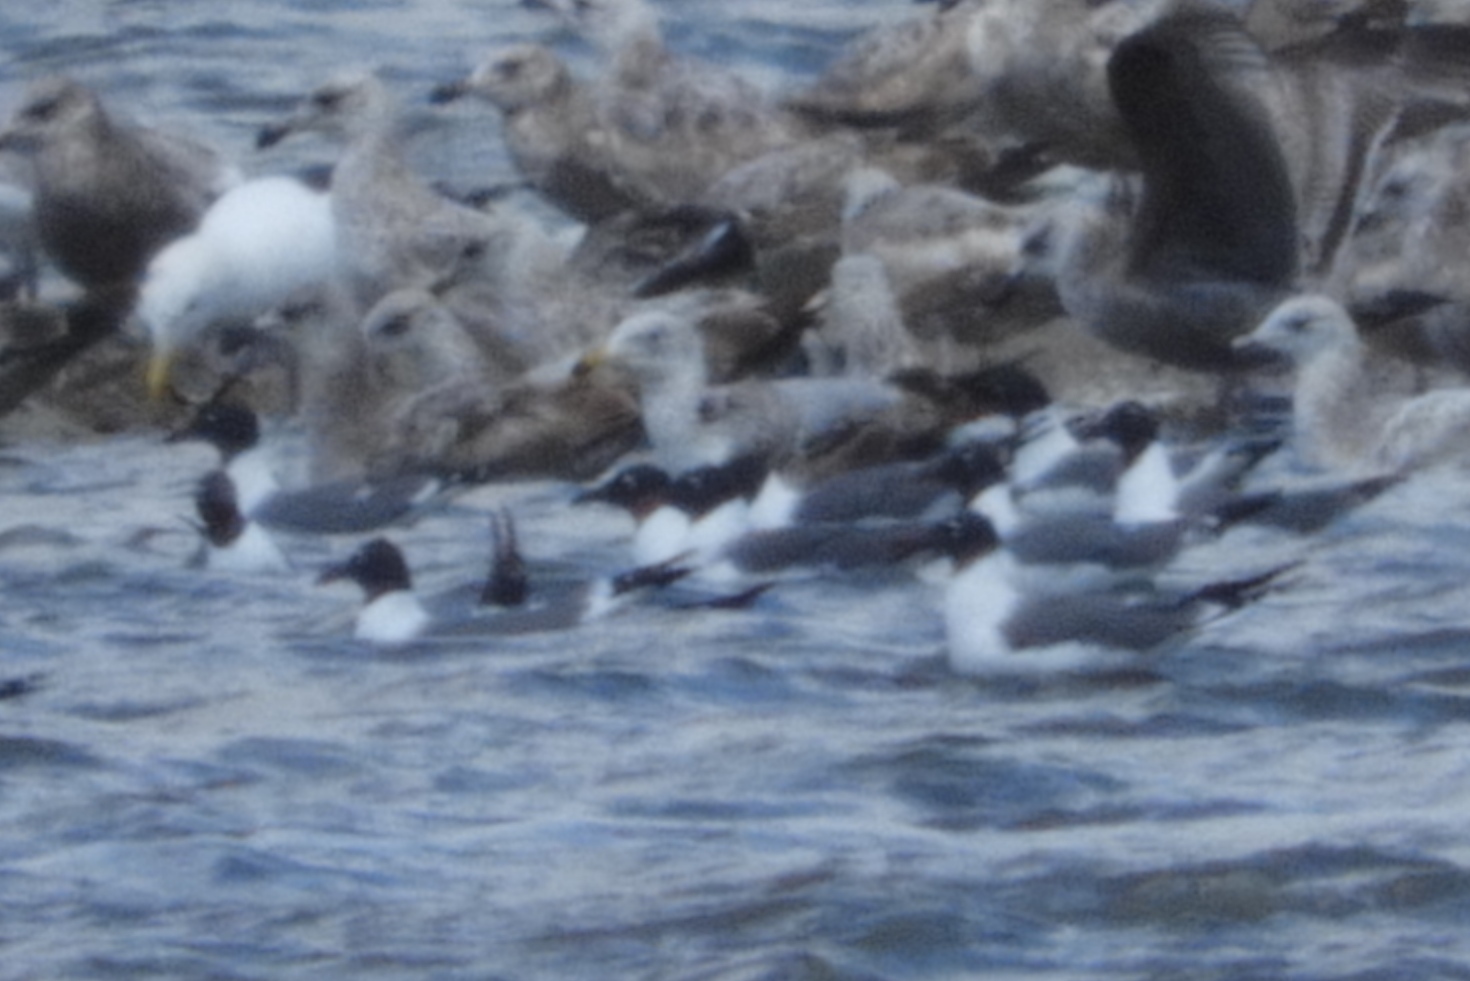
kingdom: Animalia
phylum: Chordata
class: Aves
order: Charadriiformes
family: Laridae
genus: Leucophaeus
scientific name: Leucophaeus atricilla
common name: Laughing gull
